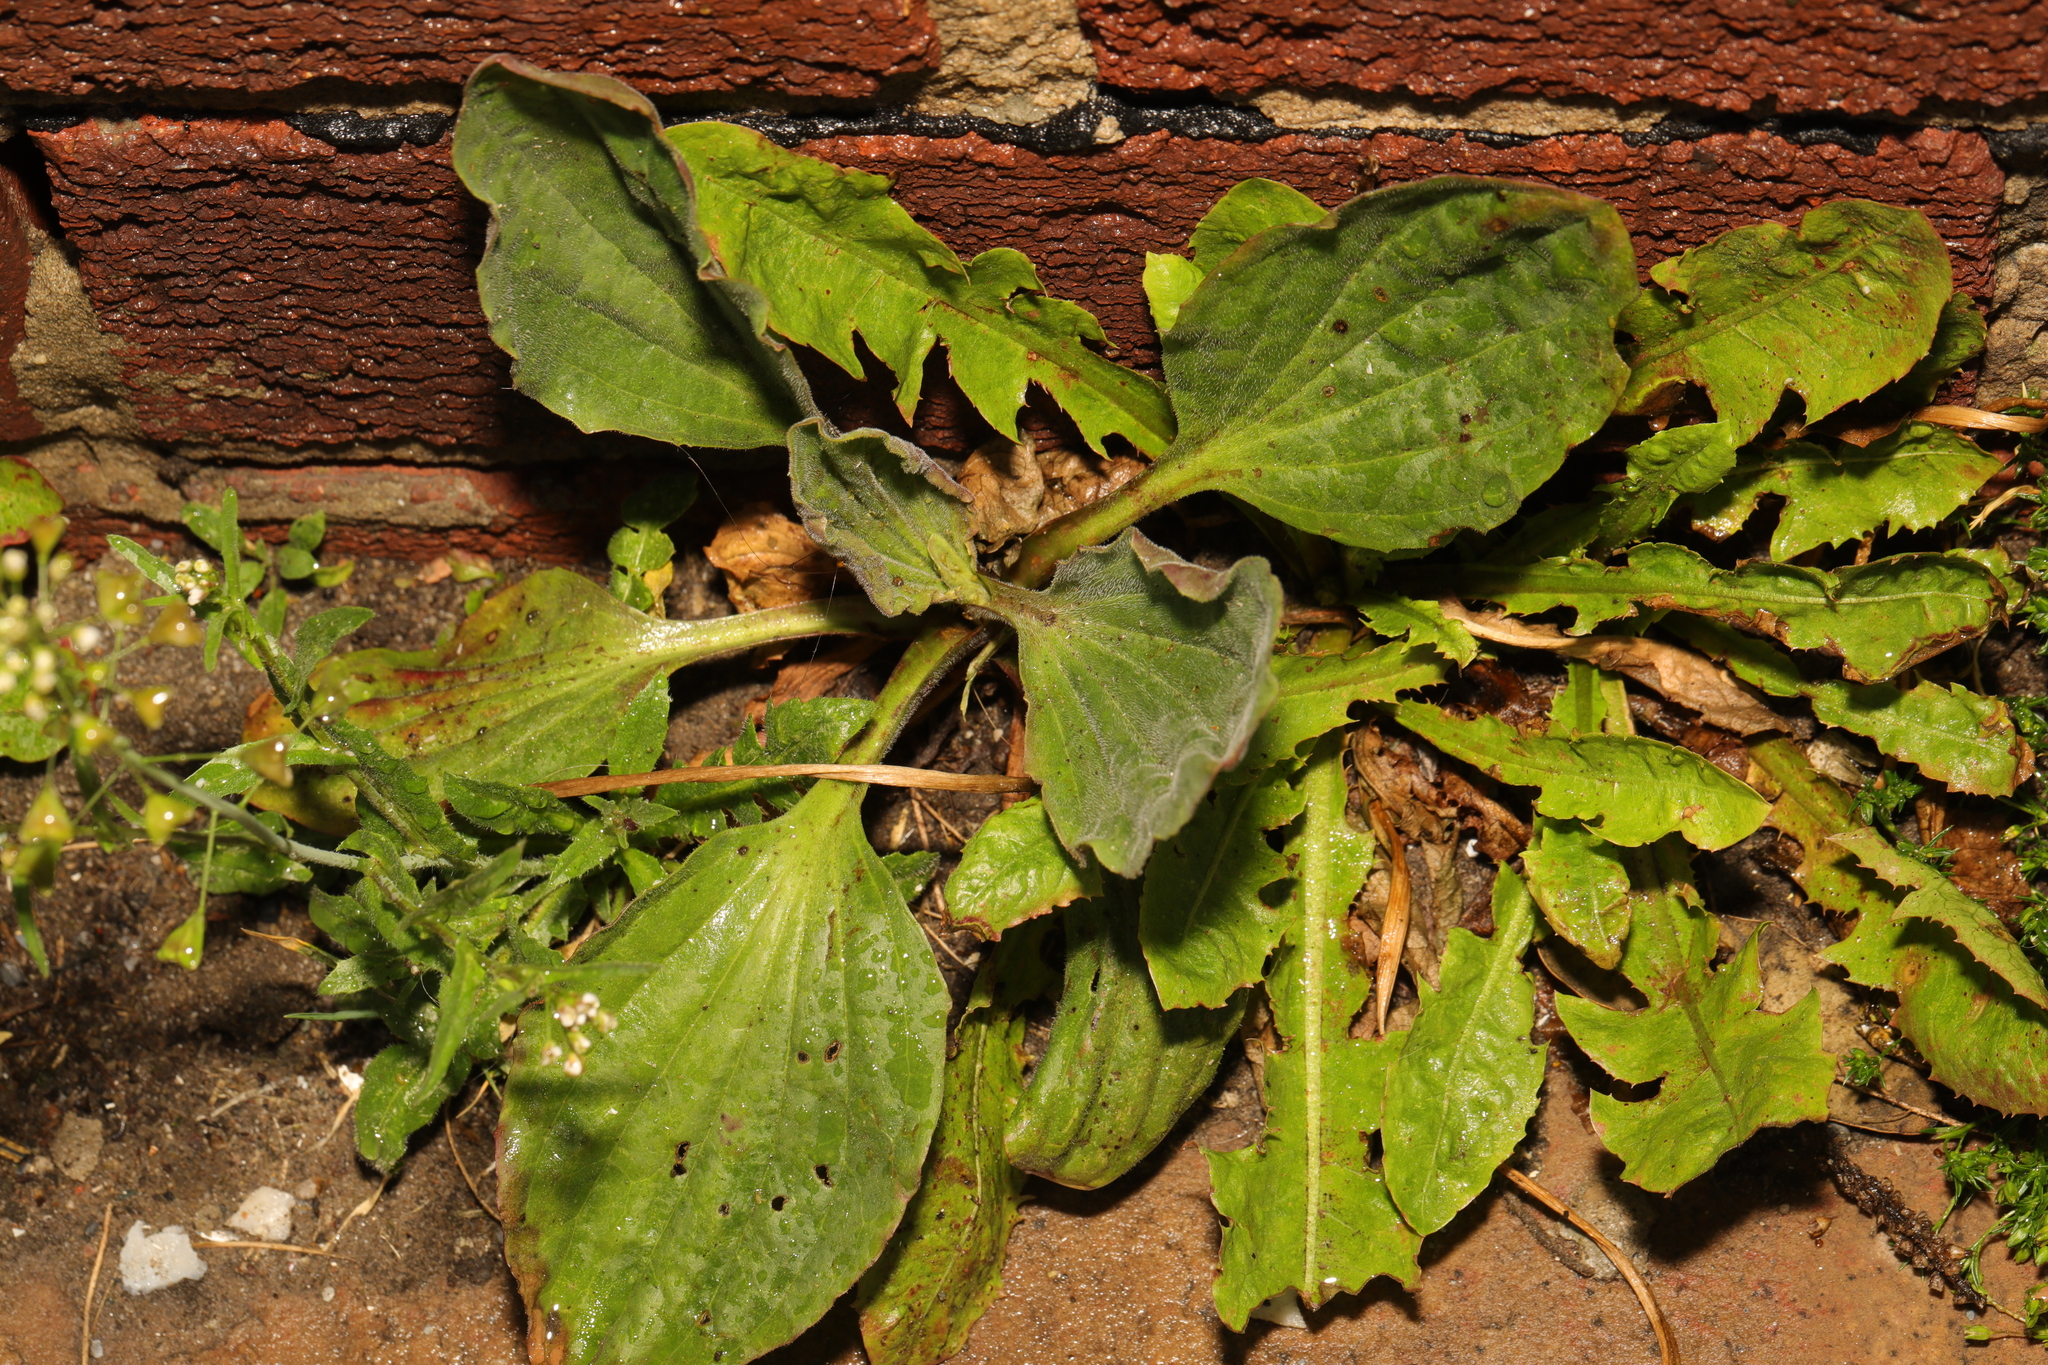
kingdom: Plantae
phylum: Tracheophyta
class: Magnoliopsida
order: Lamiales
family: Plantaginaceae
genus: Plantago
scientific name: Plantago major
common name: Common plantain
